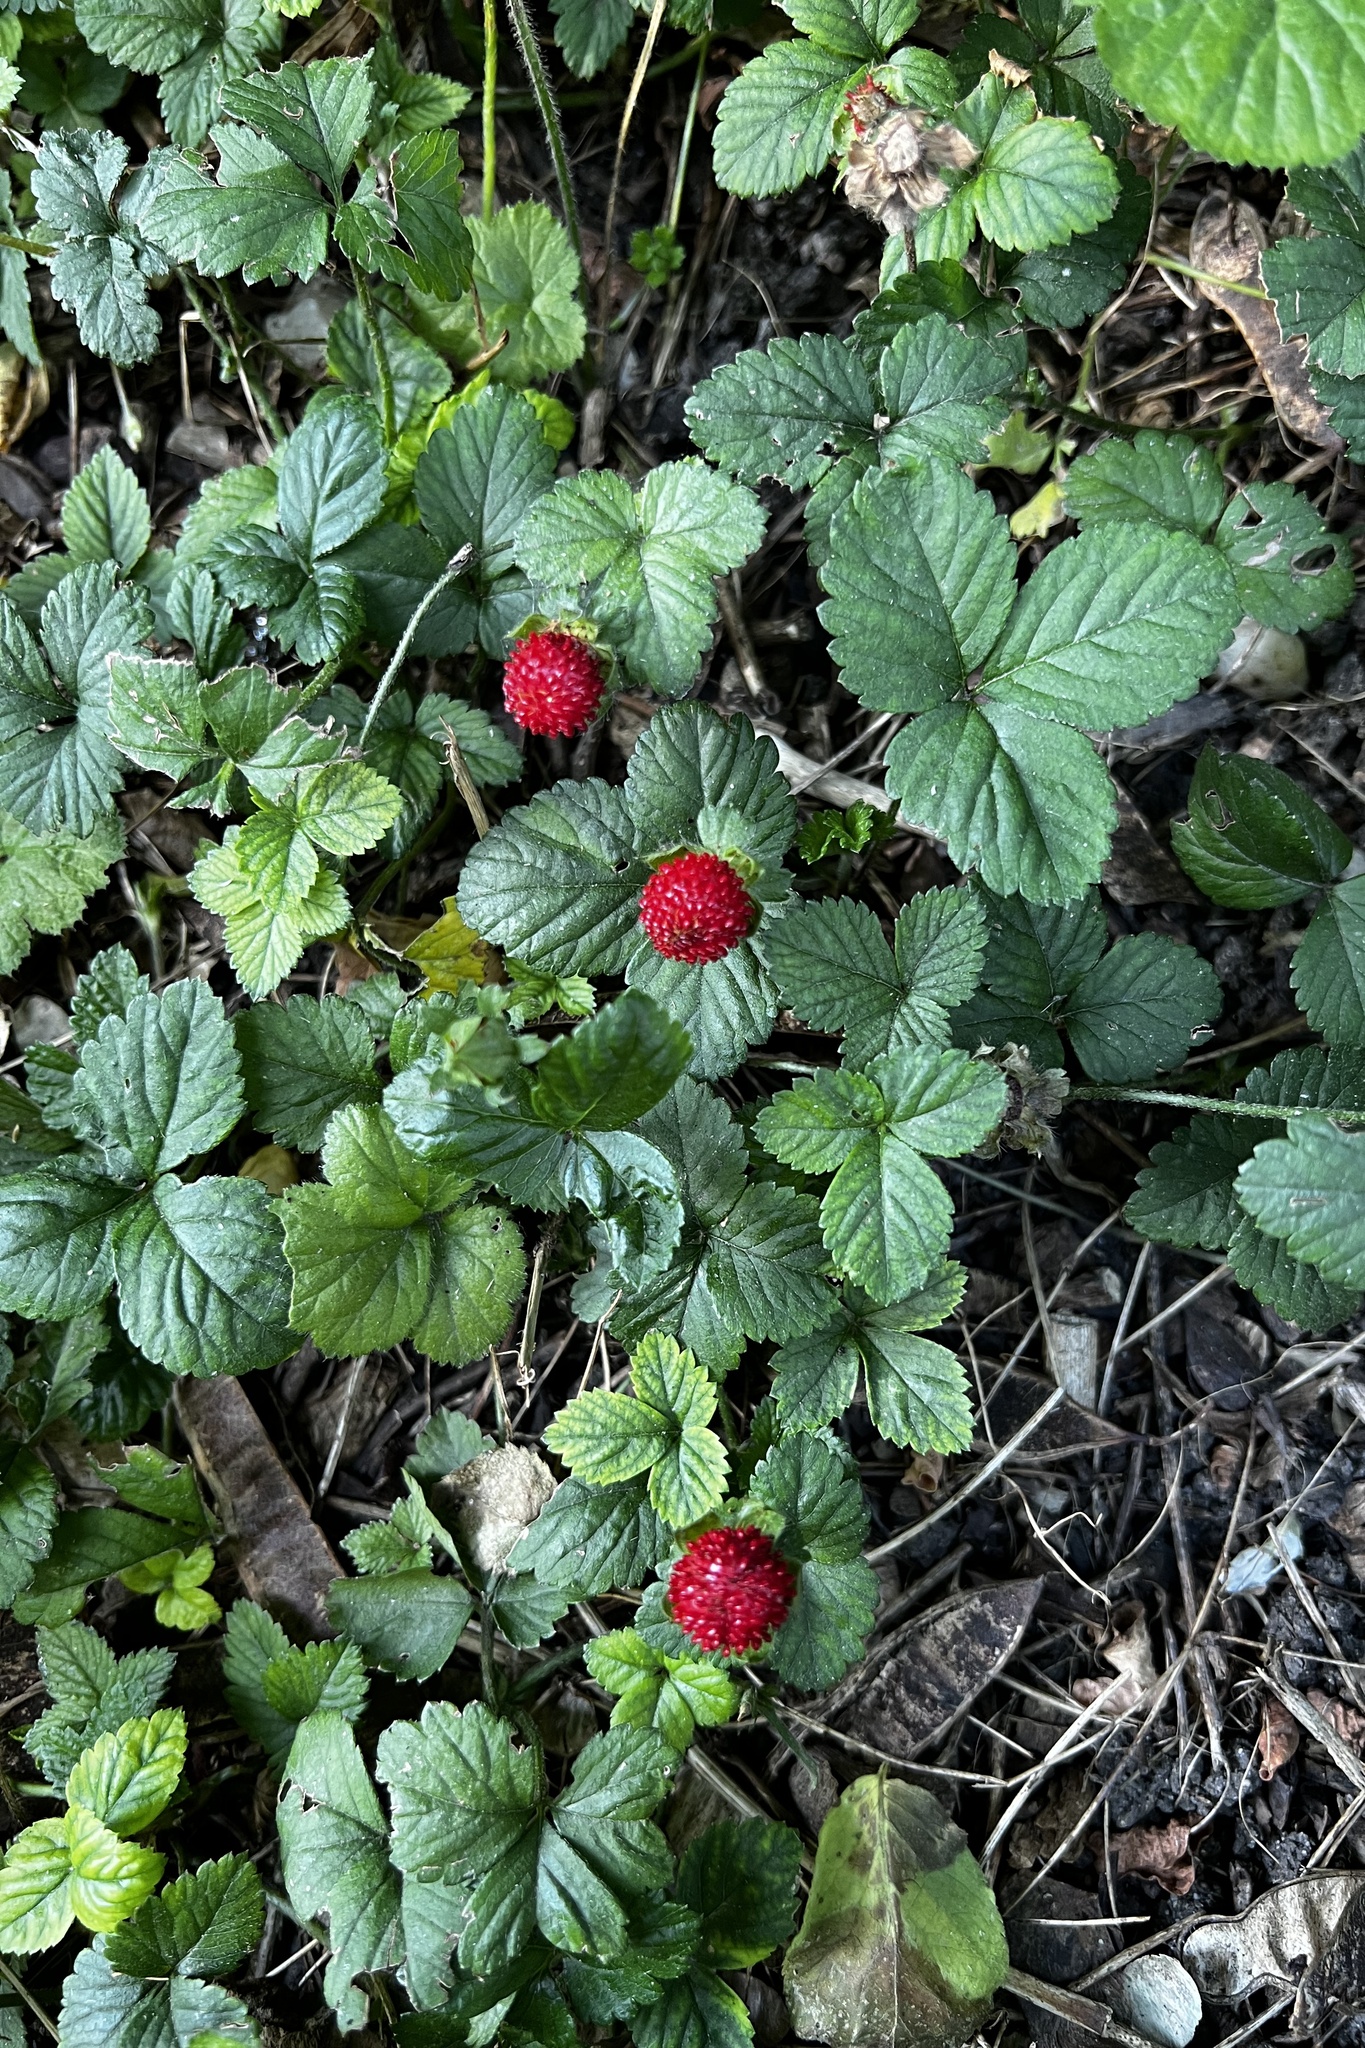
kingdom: Plantae
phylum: Tracheophyta
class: Magnoliopsida
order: Rosales
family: Rosaceae
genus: Potentilla
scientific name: Potentilla indica
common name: Yellow-flowered strawberry
